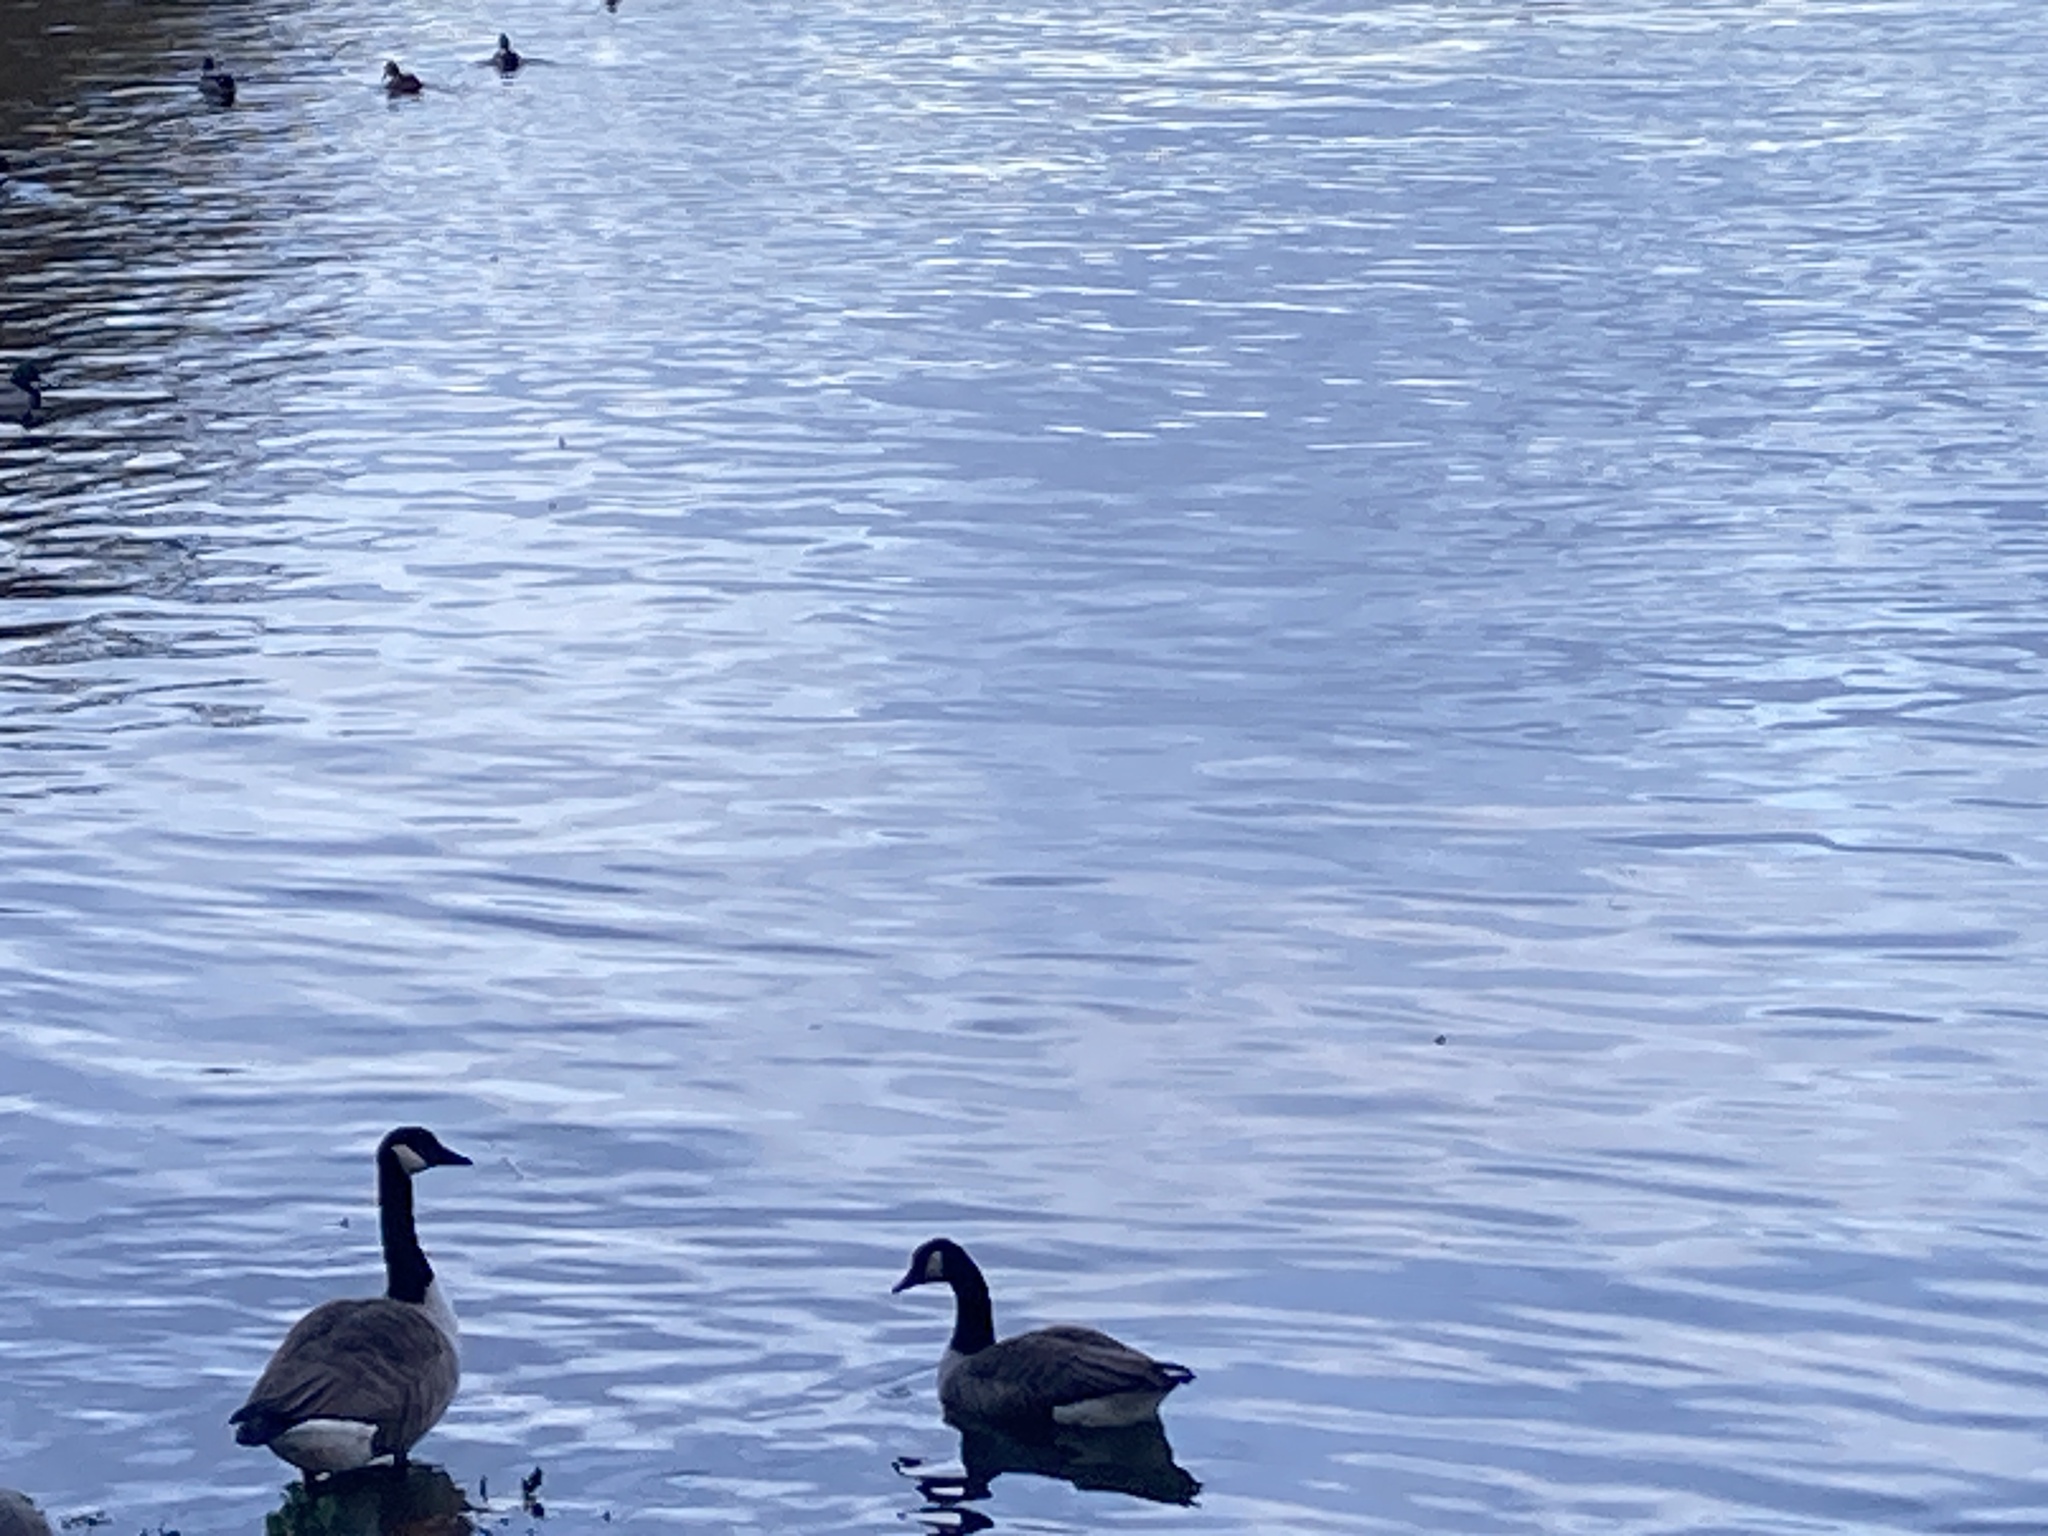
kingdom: Animalia
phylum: Chordata
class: Aves
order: Anseriformes
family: Anatidae
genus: Branta
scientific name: Branta canadensis
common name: Canada goose
